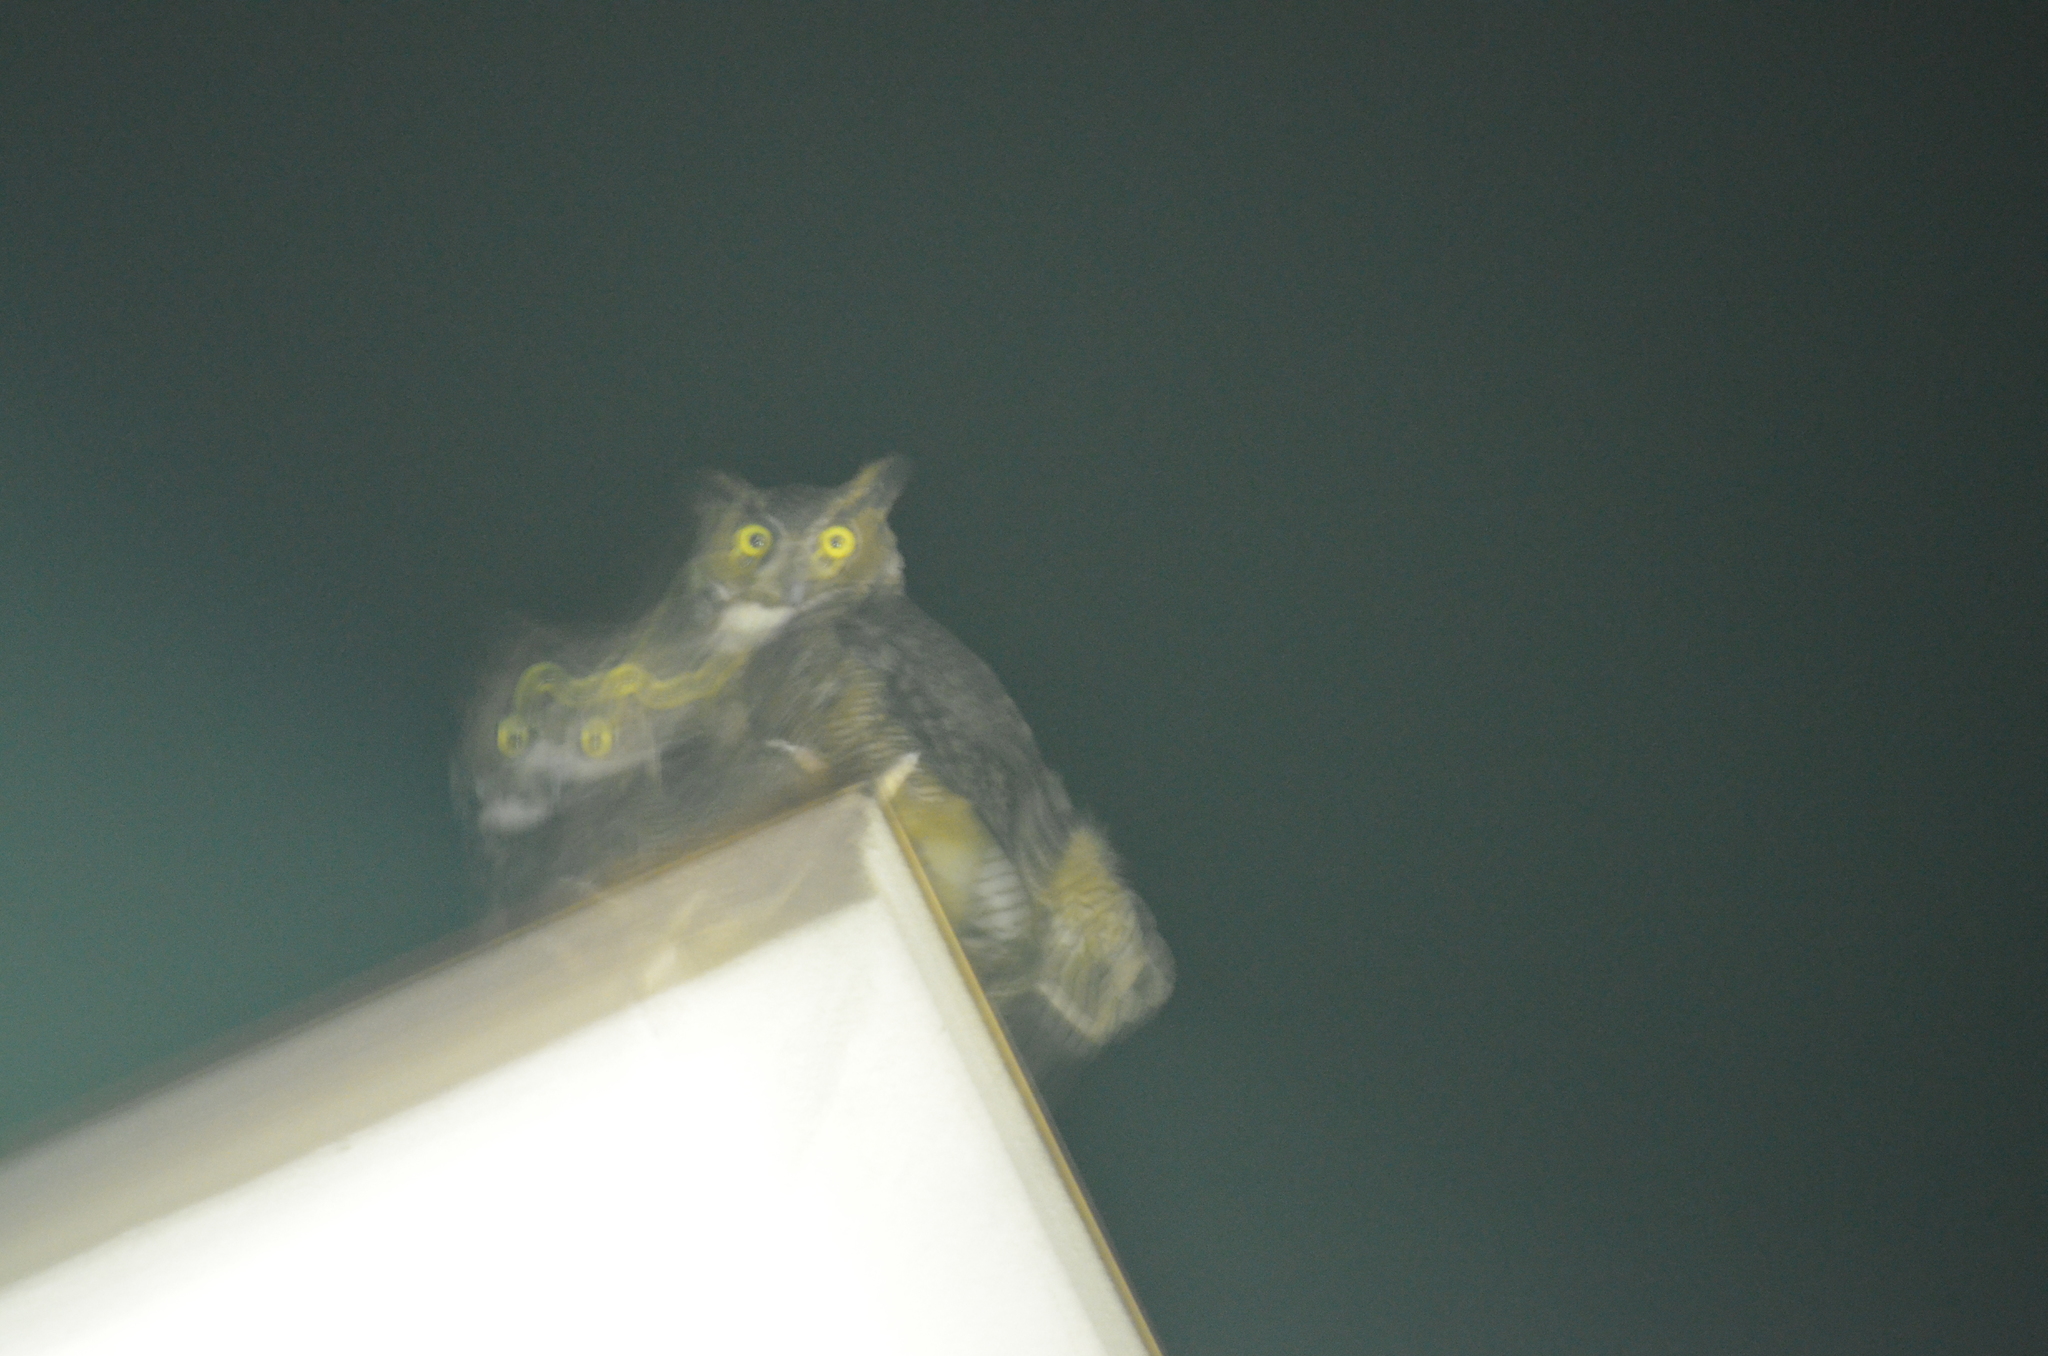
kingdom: Animalia
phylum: Chordata
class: Aves
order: Strigiformes
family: Strigidae
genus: Bubo
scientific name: Bubo virginianus
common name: Great horned owl
